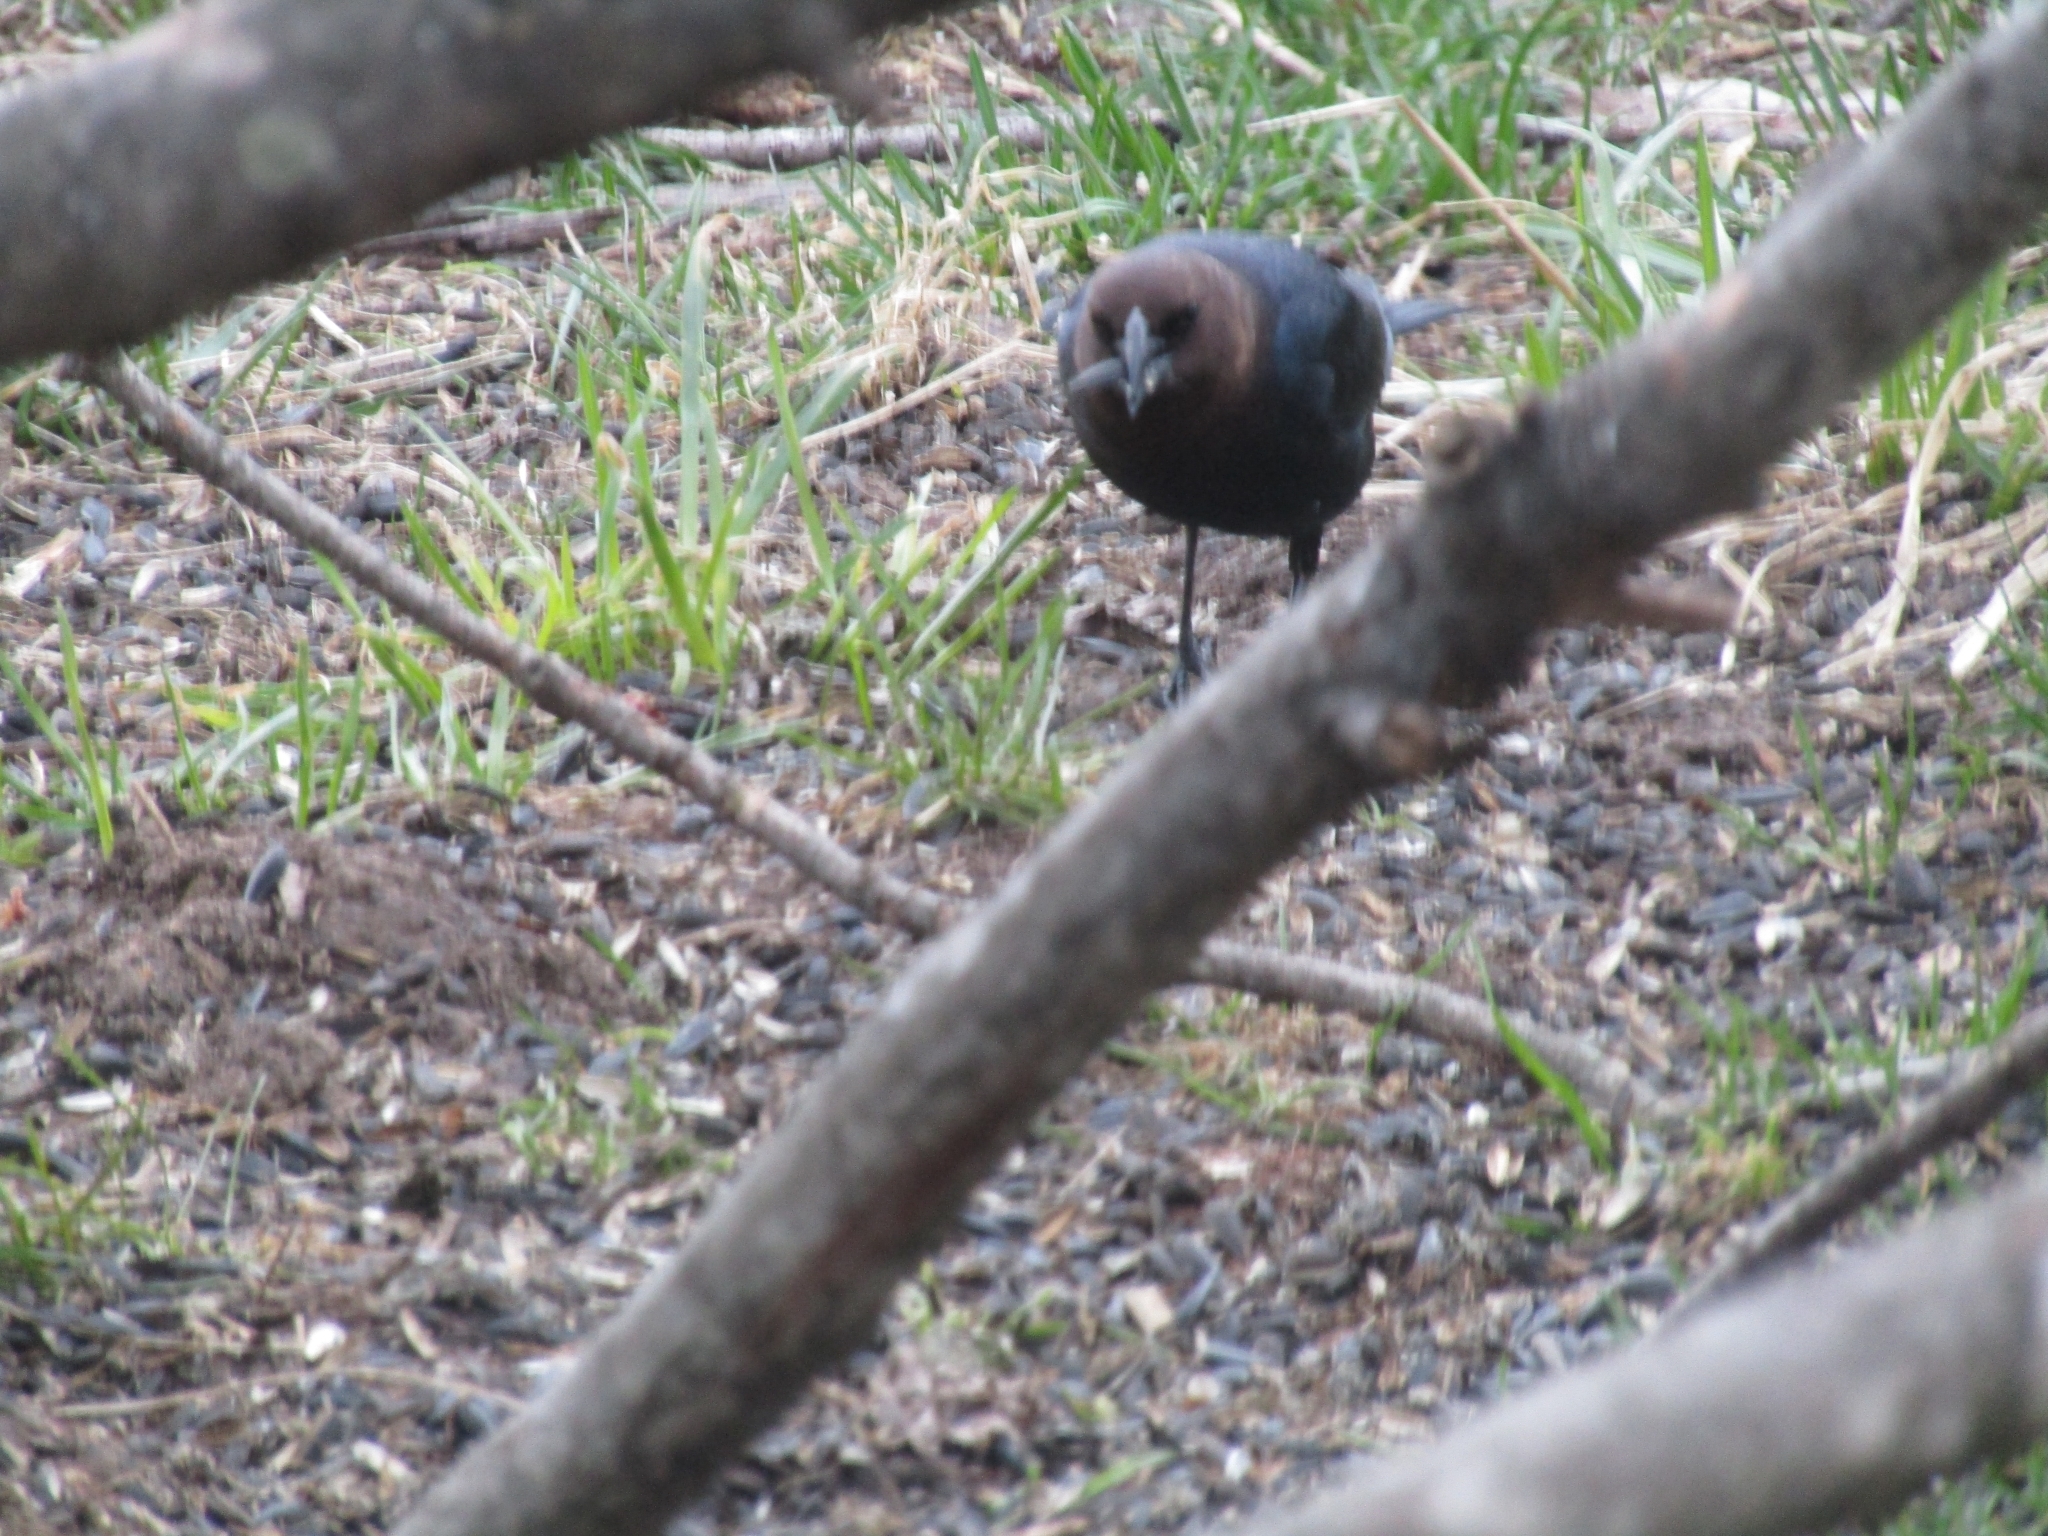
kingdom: Animalia
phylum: Chordata
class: Aves
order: Passeriformes
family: Icteridae
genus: Molothrus
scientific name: Molothrus ater
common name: Brown-headed cowbird
